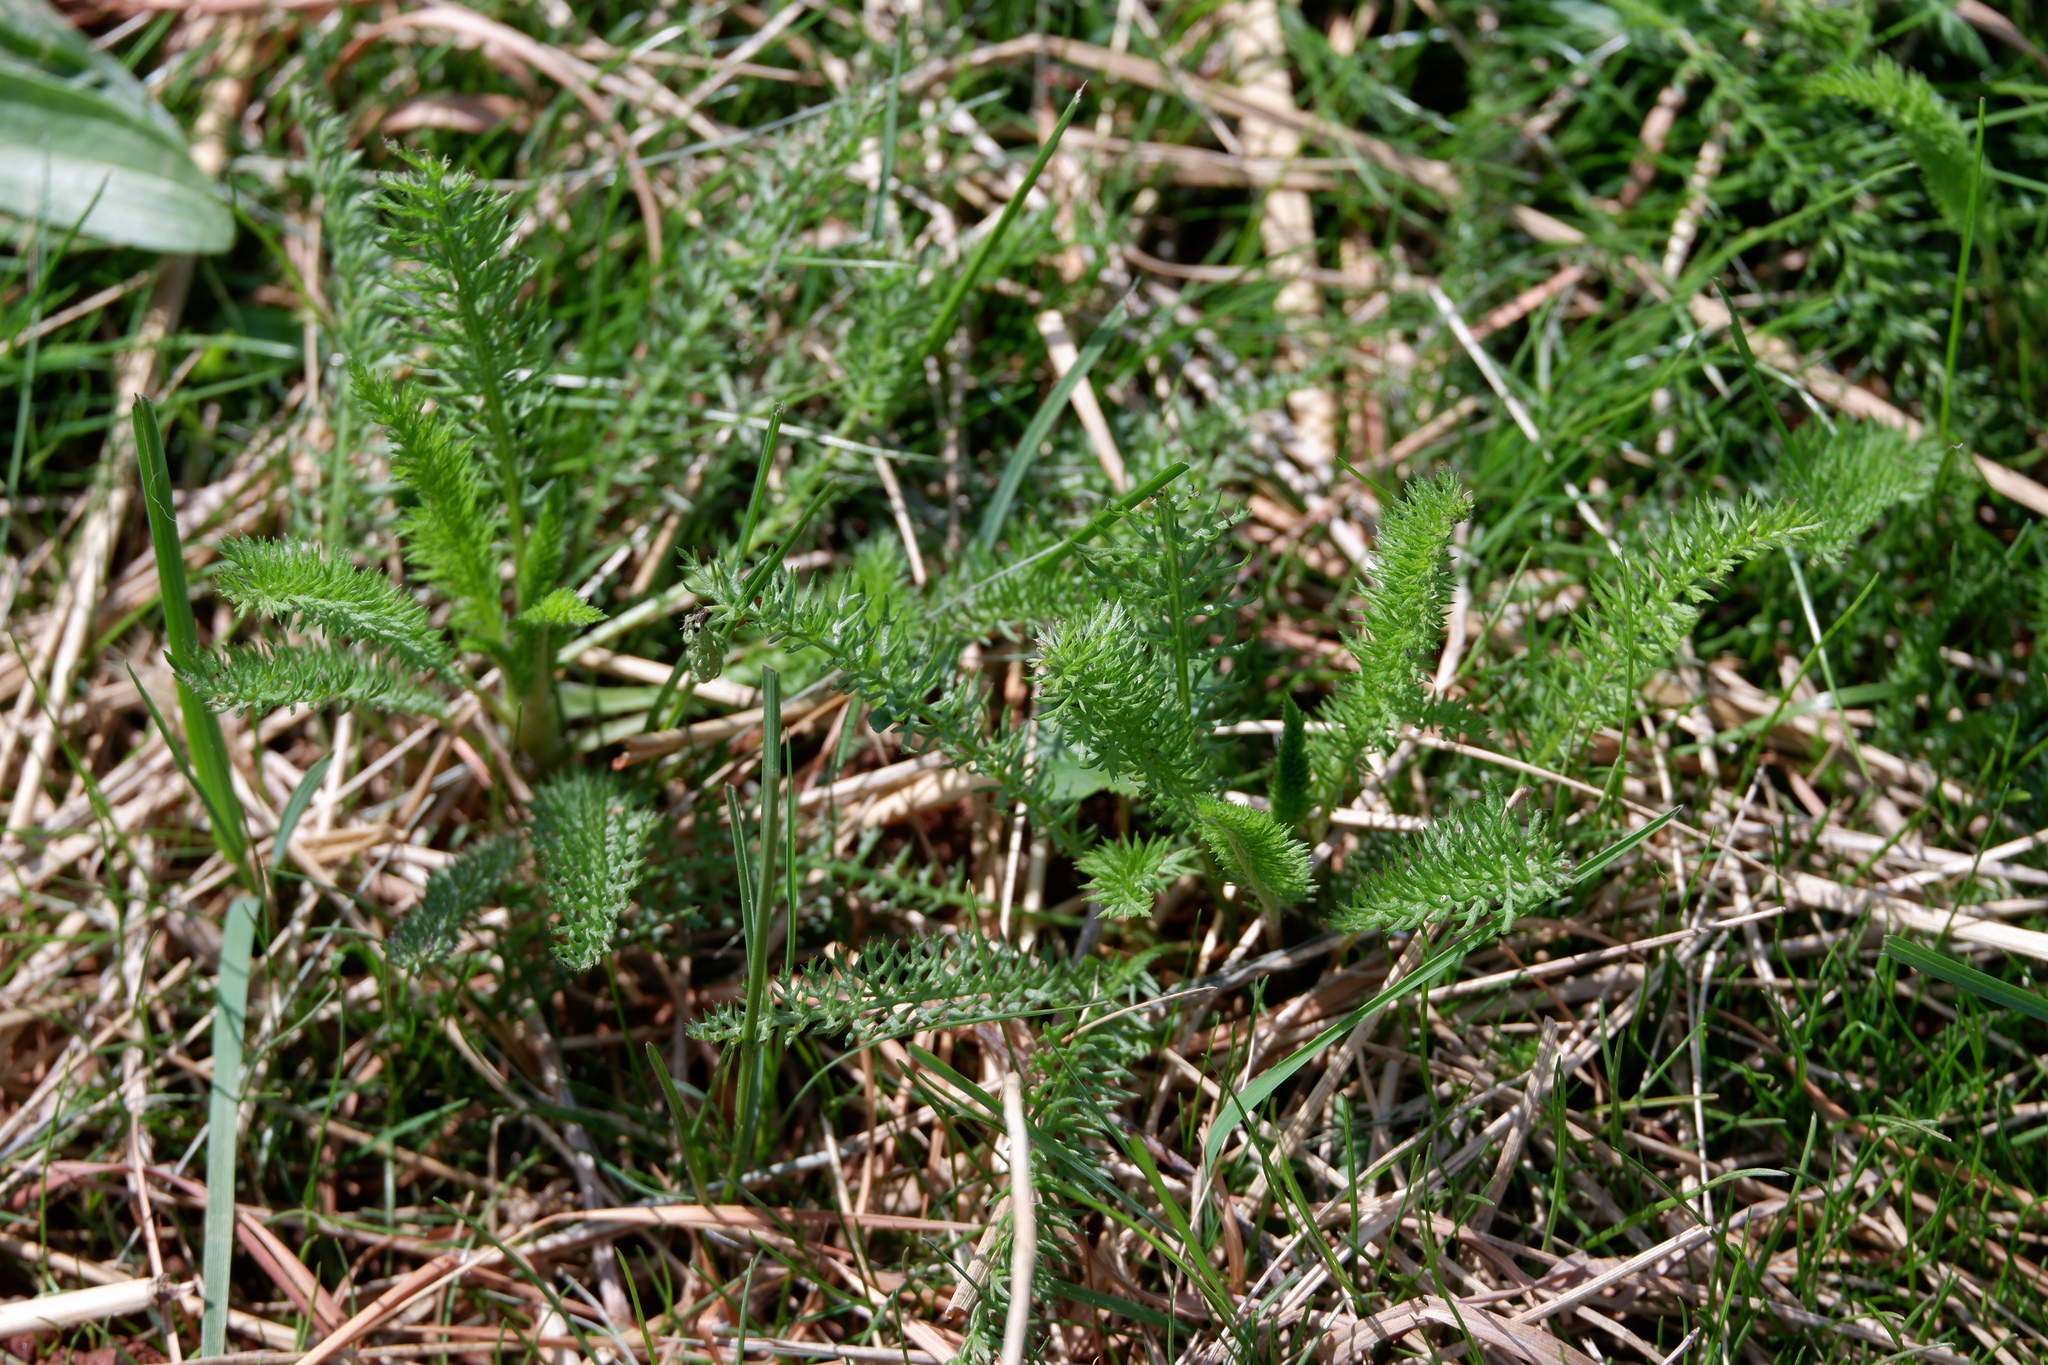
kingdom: Plantae
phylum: Tracheophyta
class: Magnoliopsida
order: Asterales
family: Asteraceae
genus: Achillea
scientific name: Achillea millefolium
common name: Yarrow
